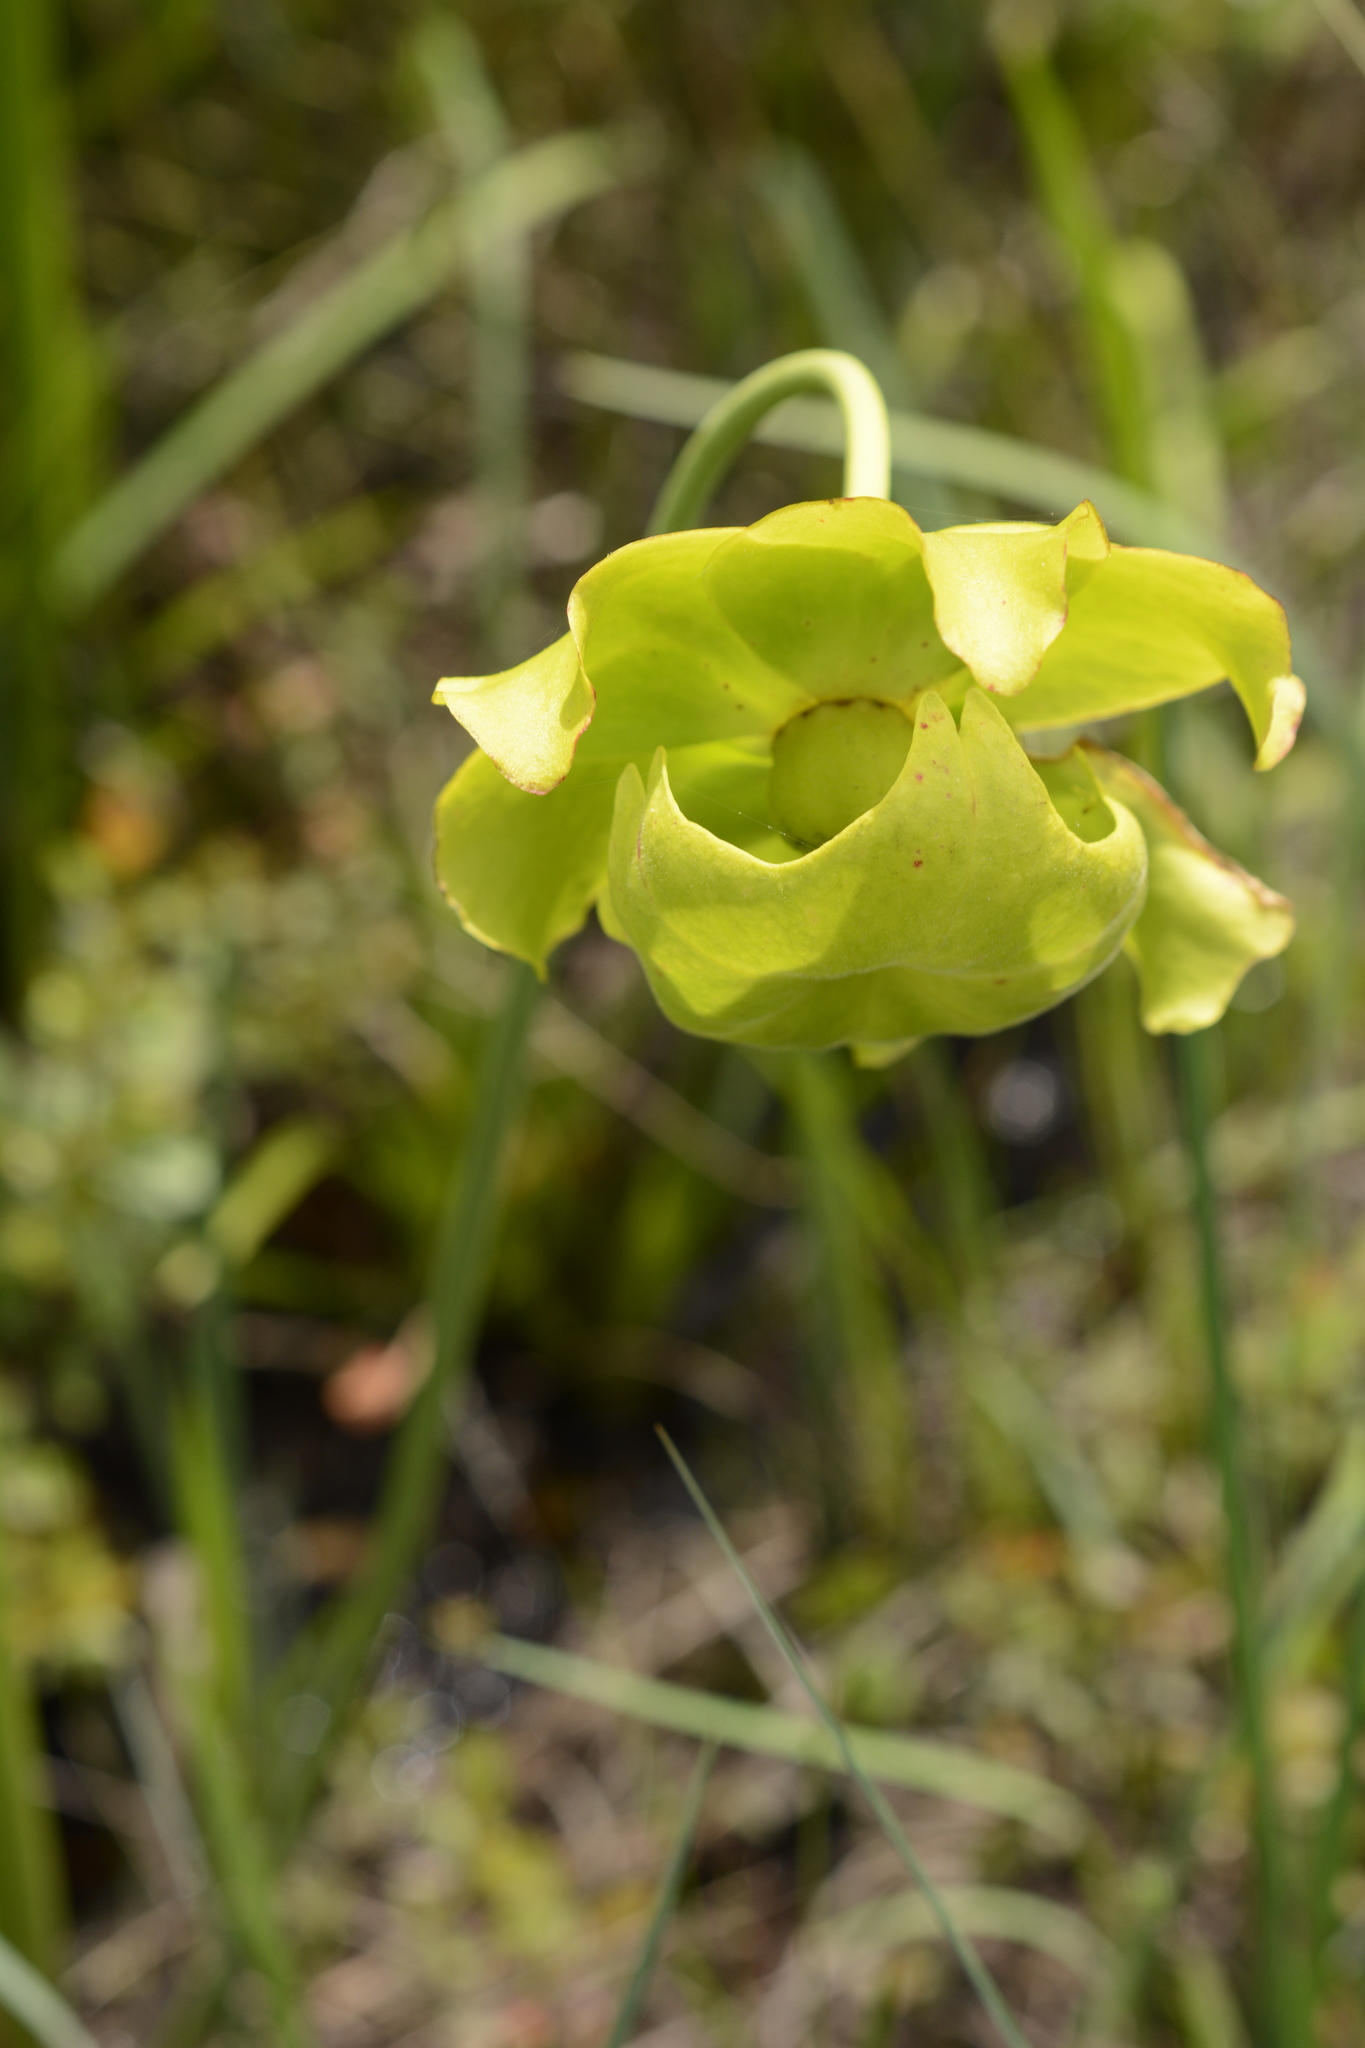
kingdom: Plantae
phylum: Tracheophyta
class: Magnoliopsida
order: Ericales
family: Sarraceniaceae
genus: Sarracenia
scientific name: Sarracenia flava
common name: Trumpets
